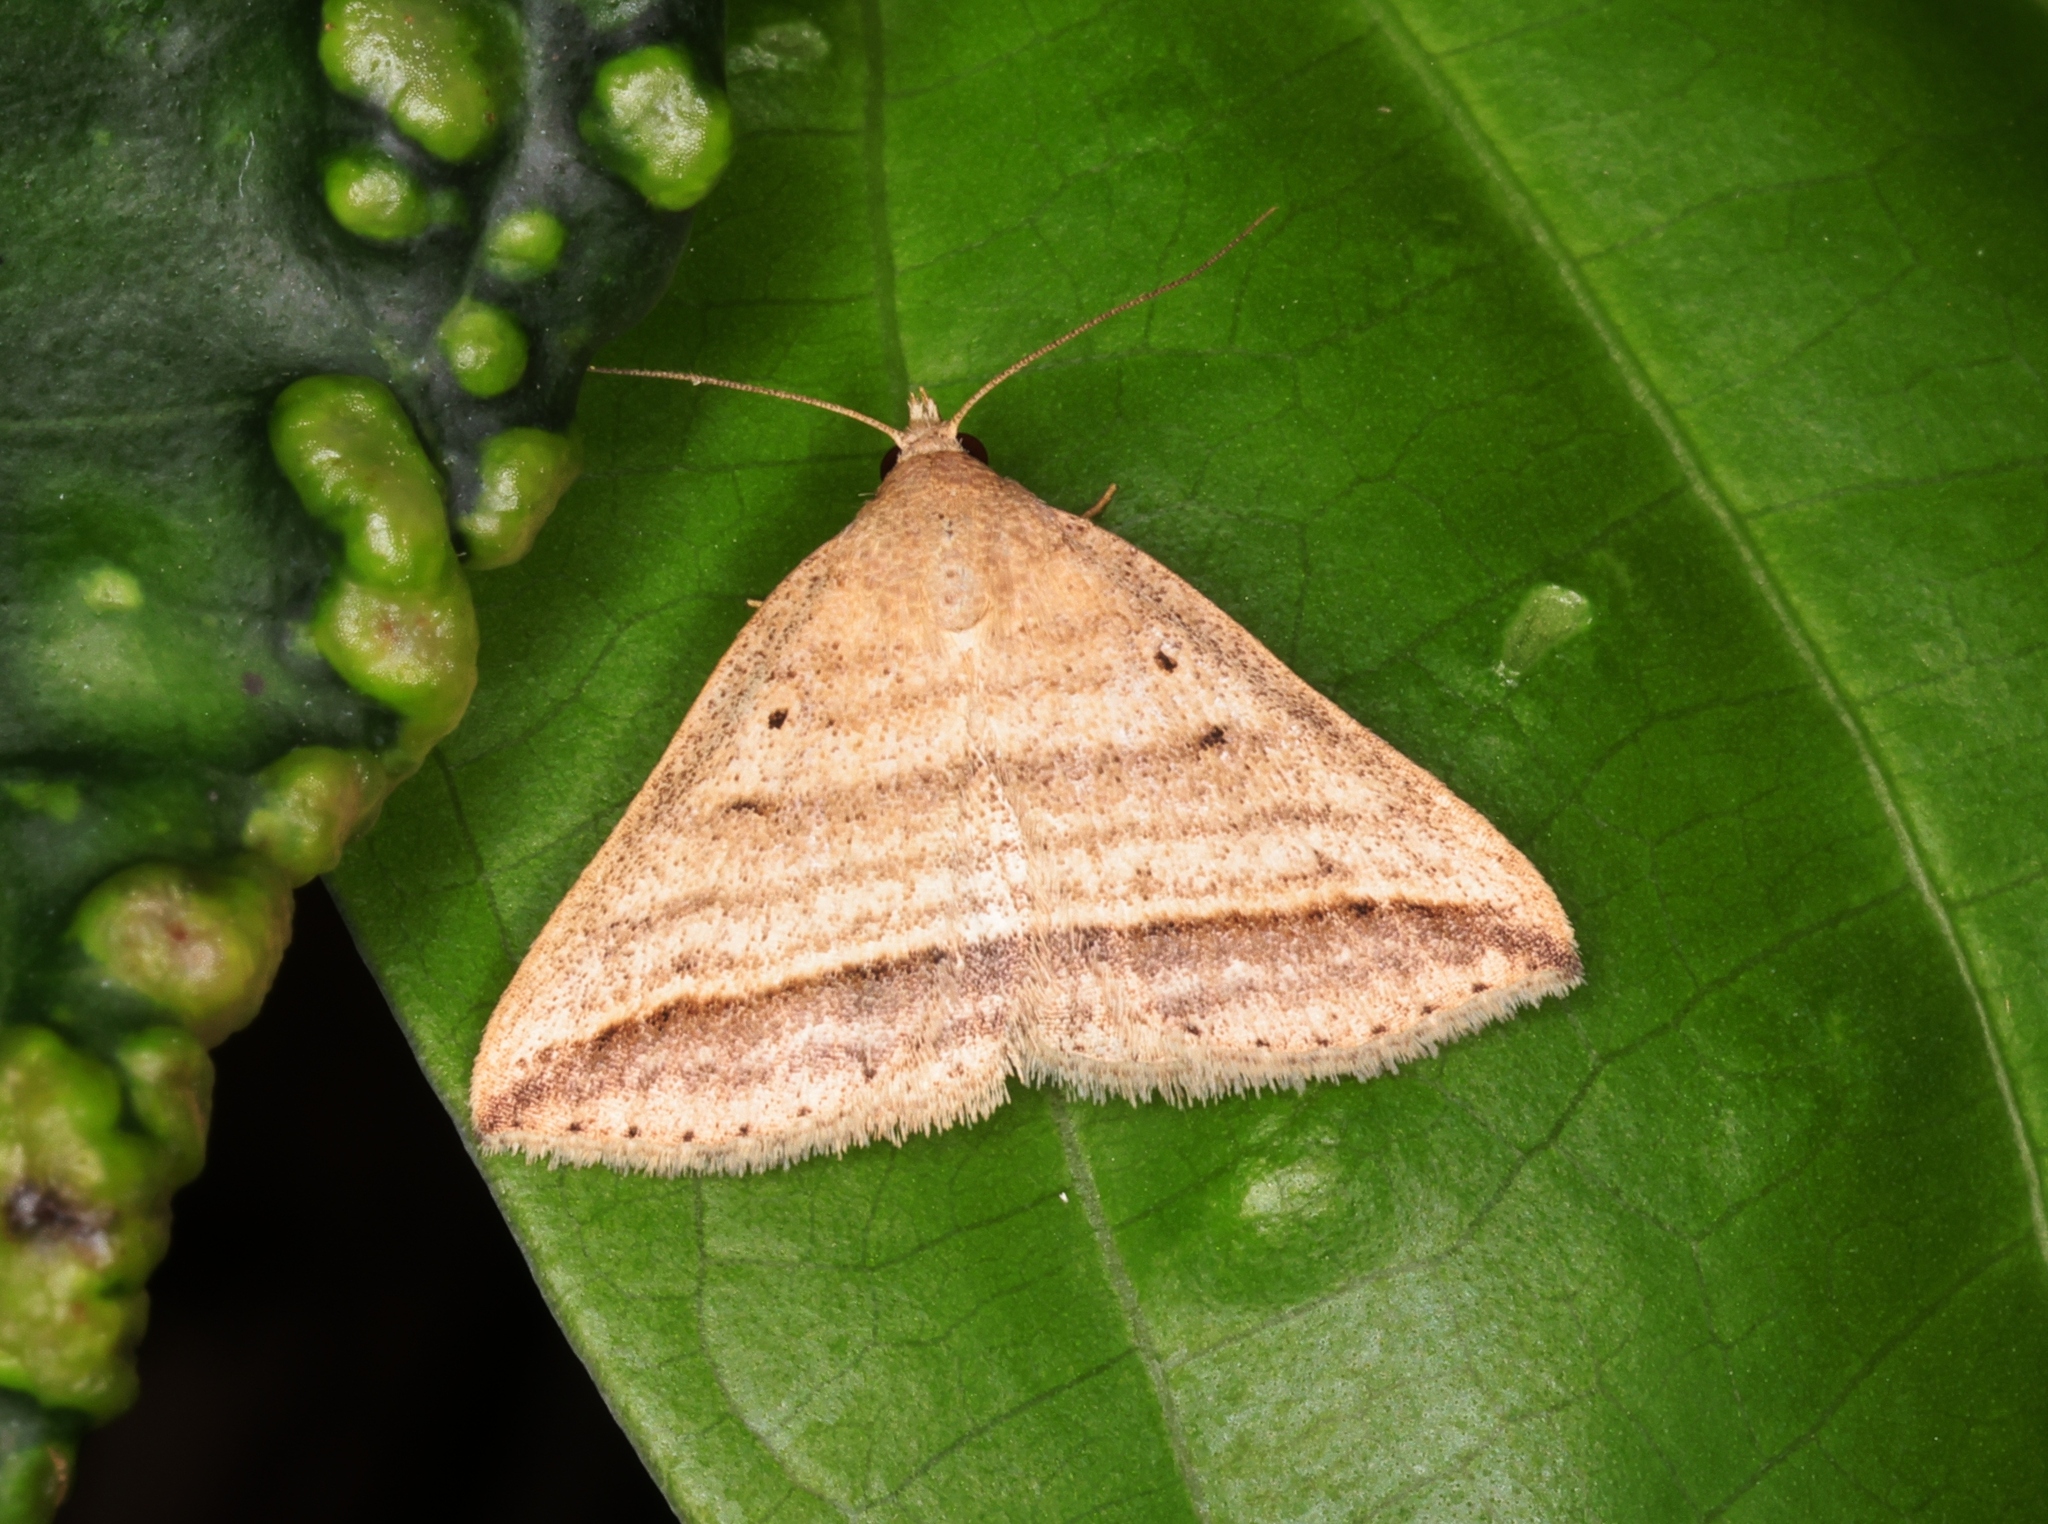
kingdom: Animalia
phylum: Arthropoda
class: Insecta
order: Lepidoptera
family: Erebidae
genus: Loxioda
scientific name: Loxioda similis
